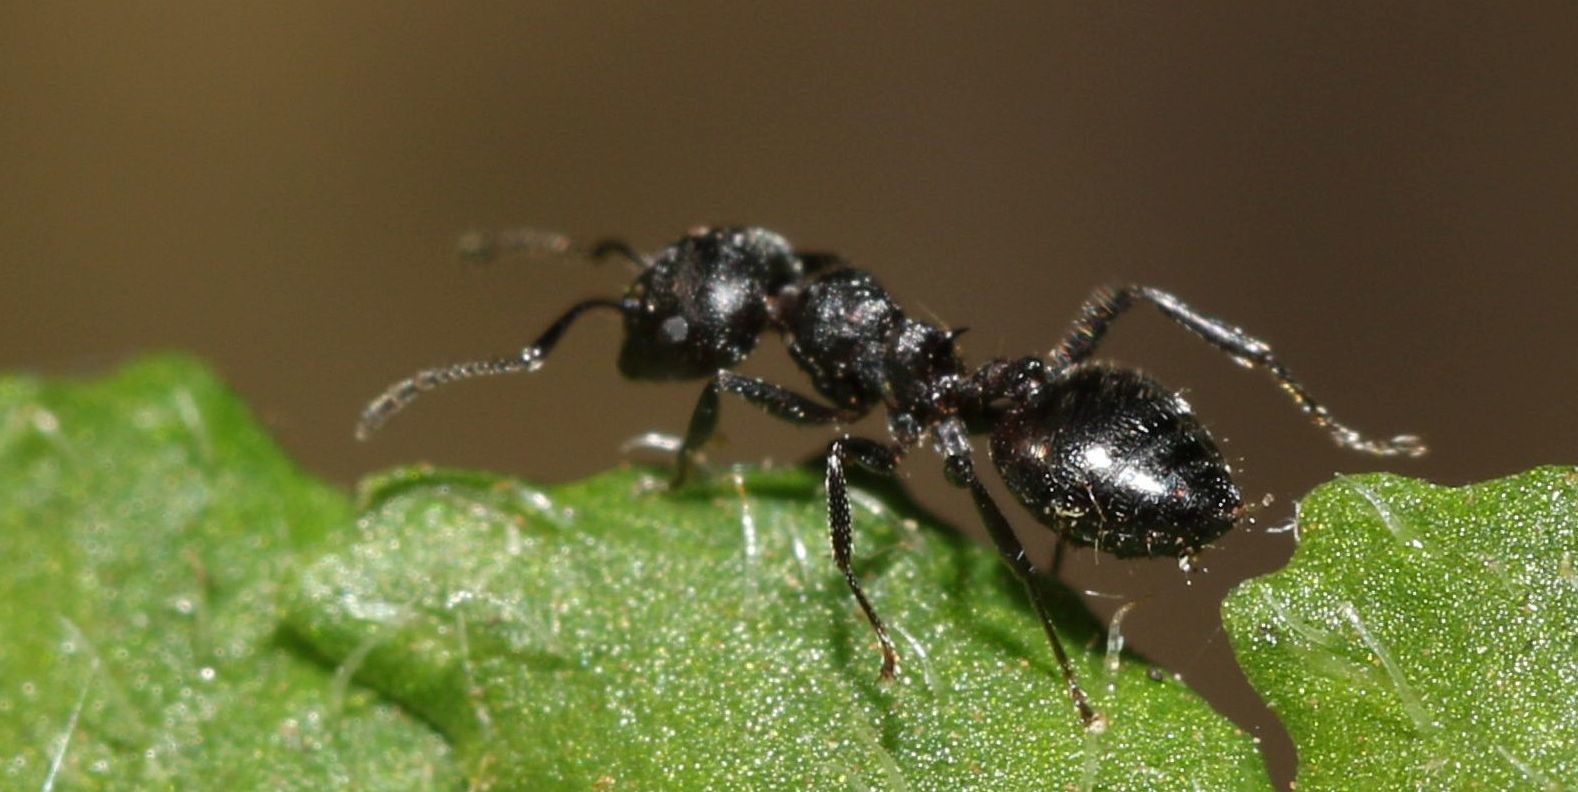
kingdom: Animalia
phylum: Arthropoda
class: Insecta
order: Hymenoptera
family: Formicidae
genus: Crematogaster
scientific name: Crematogaster peringueyi
